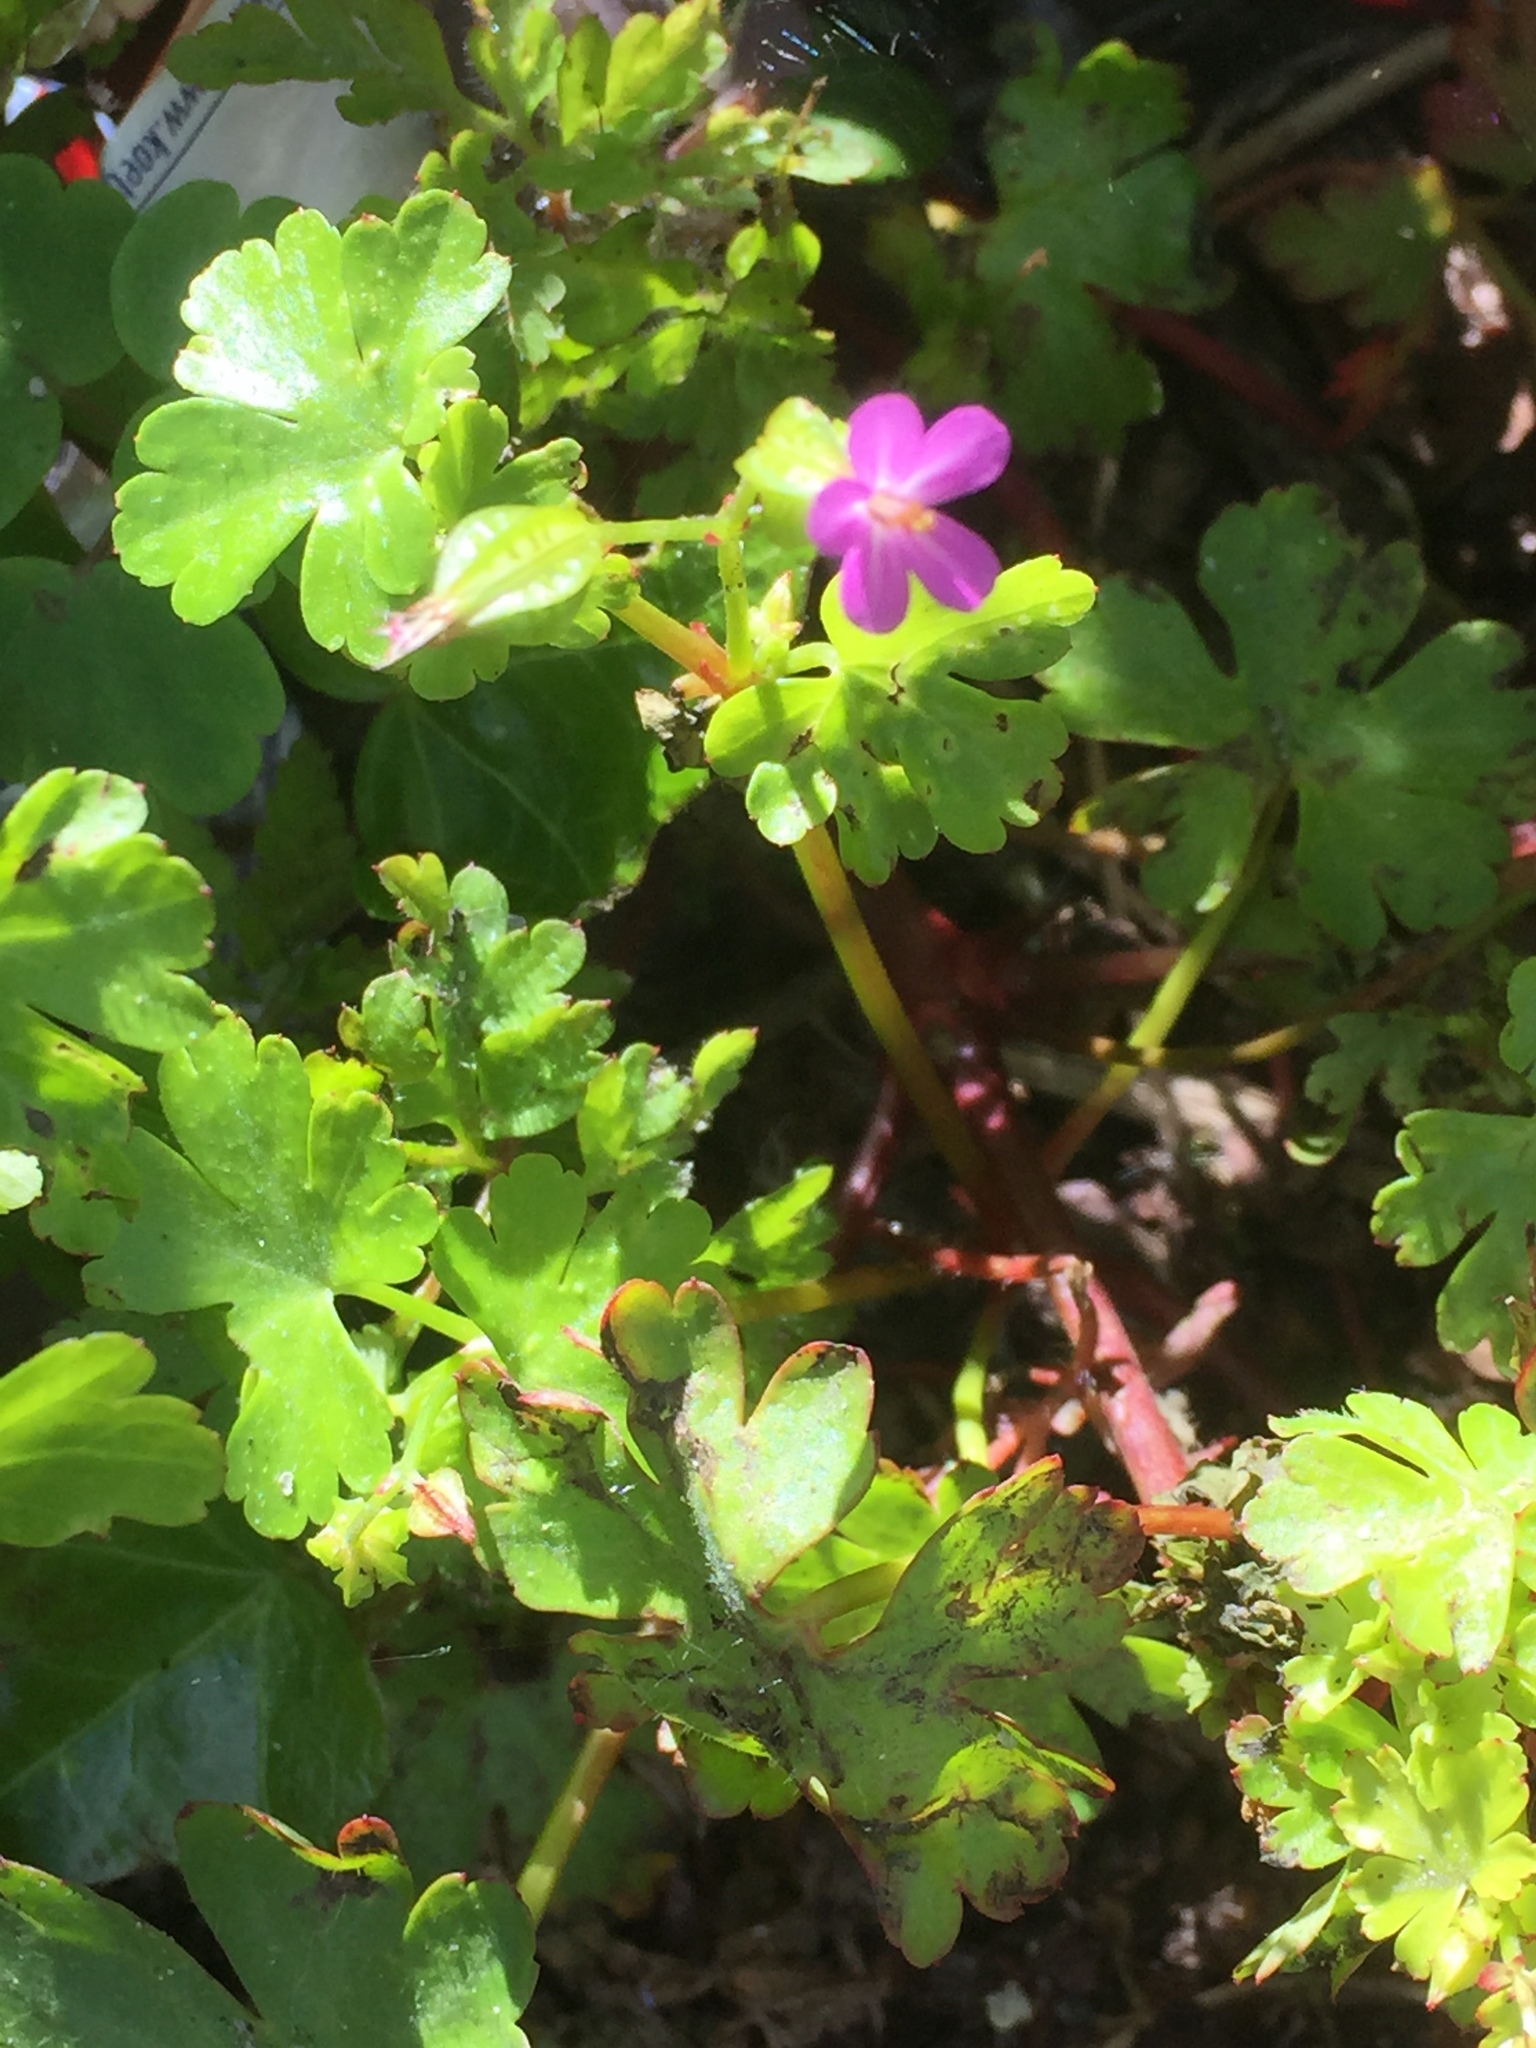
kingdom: Plantae
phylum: Tracheophyta
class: Magnoliopsida
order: Geraniales
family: Geraniaceae
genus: Geranium
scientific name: Geranium lucidum
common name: Shining crane's-bill
